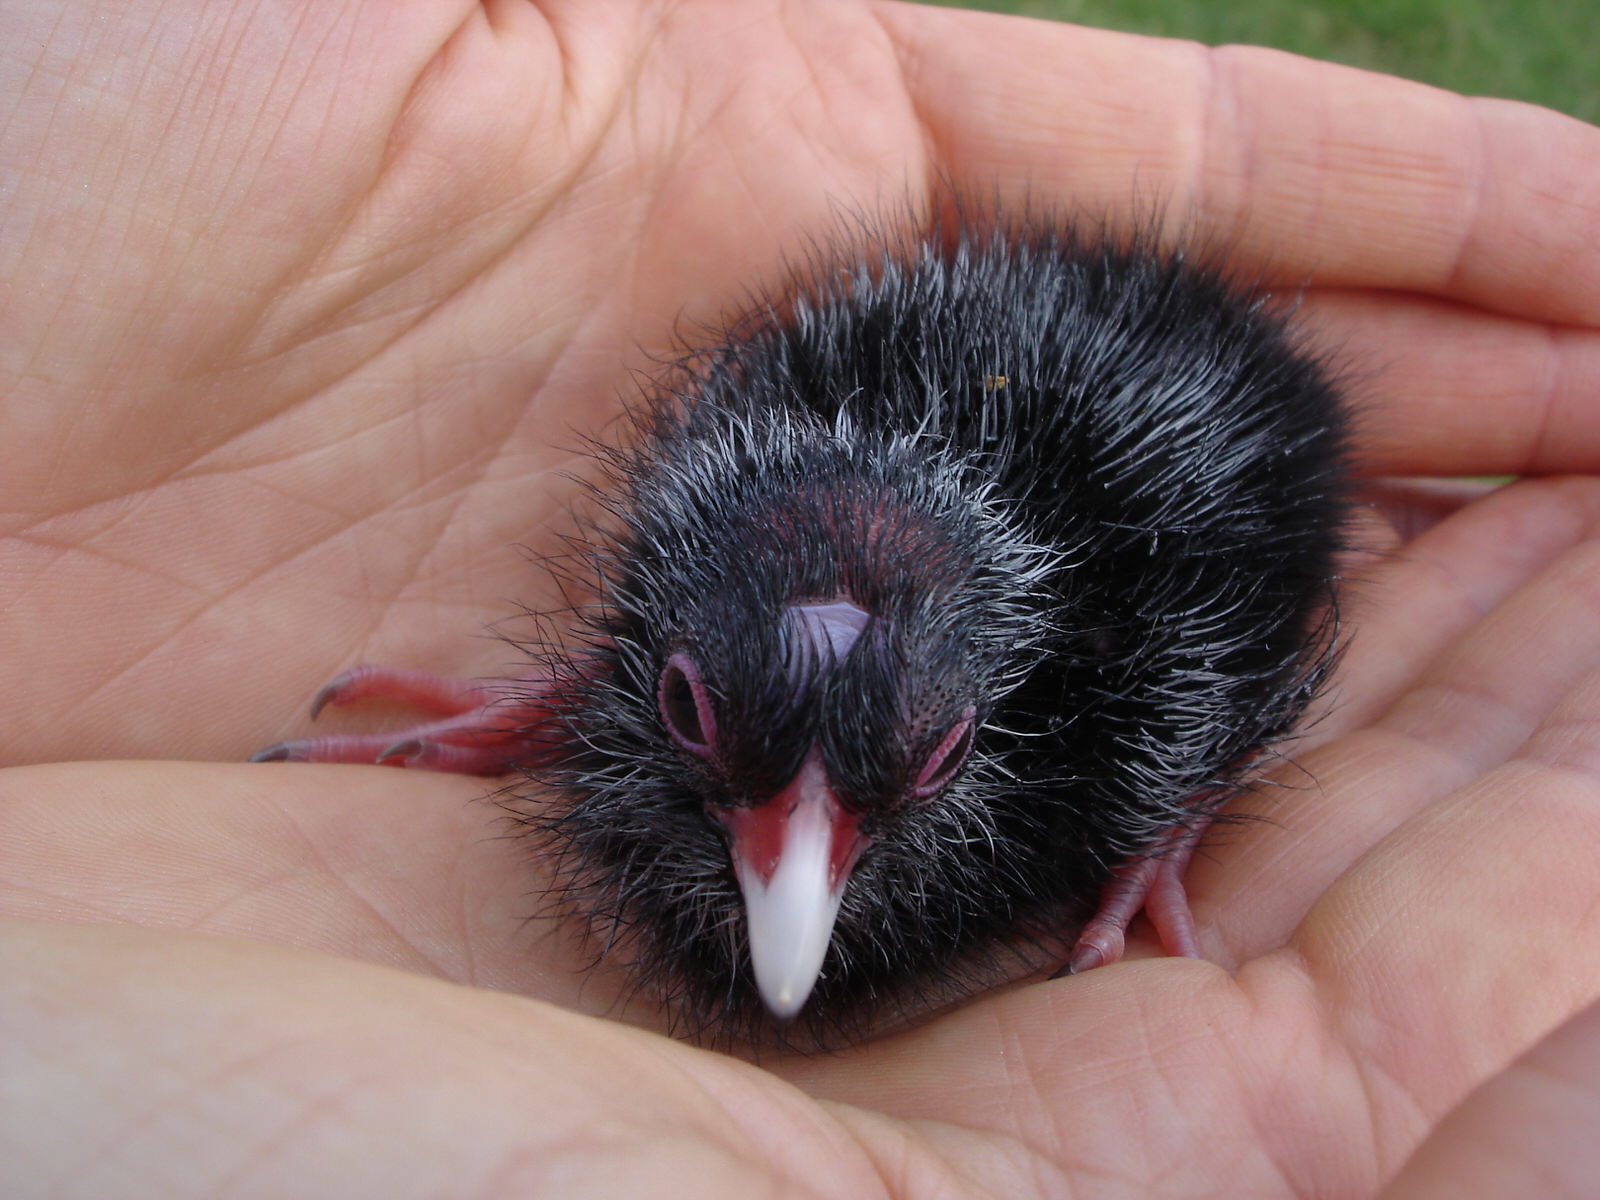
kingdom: Animalia
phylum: Chordata
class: Aves
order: Gruiformes
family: Rallidae
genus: Porphyrio
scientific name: Porphyrio melanotus
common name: Australasian swamphen
